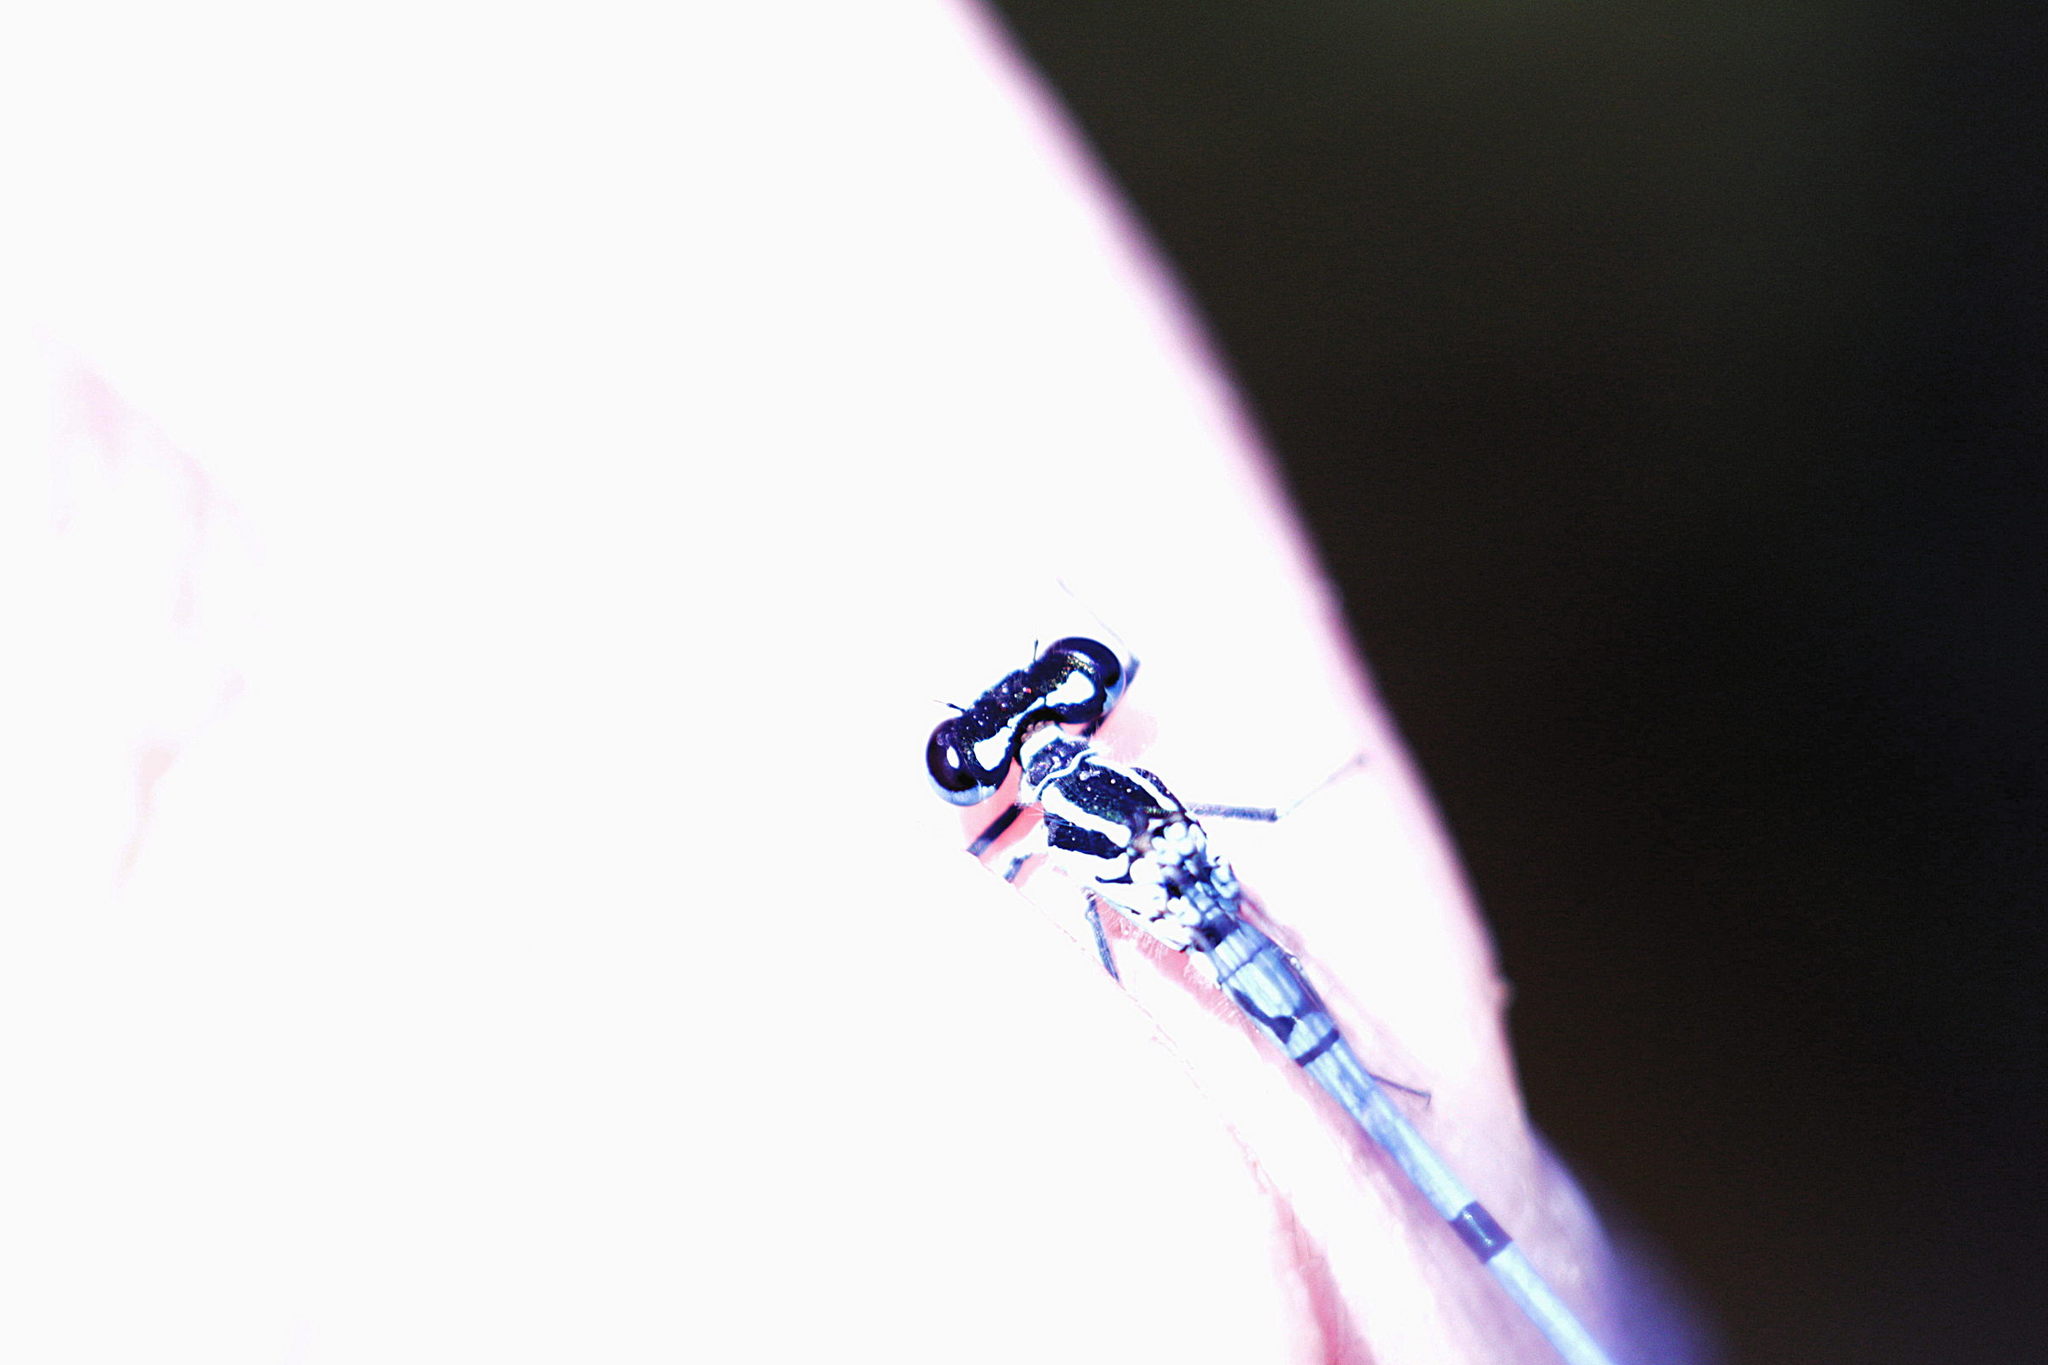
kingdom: Animalia
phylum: Arthropoda
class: Insecta
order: Odonata
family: Coenagrionidae
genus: Coenagrion
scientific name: Coenagrion puella
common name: Azure damselfly
